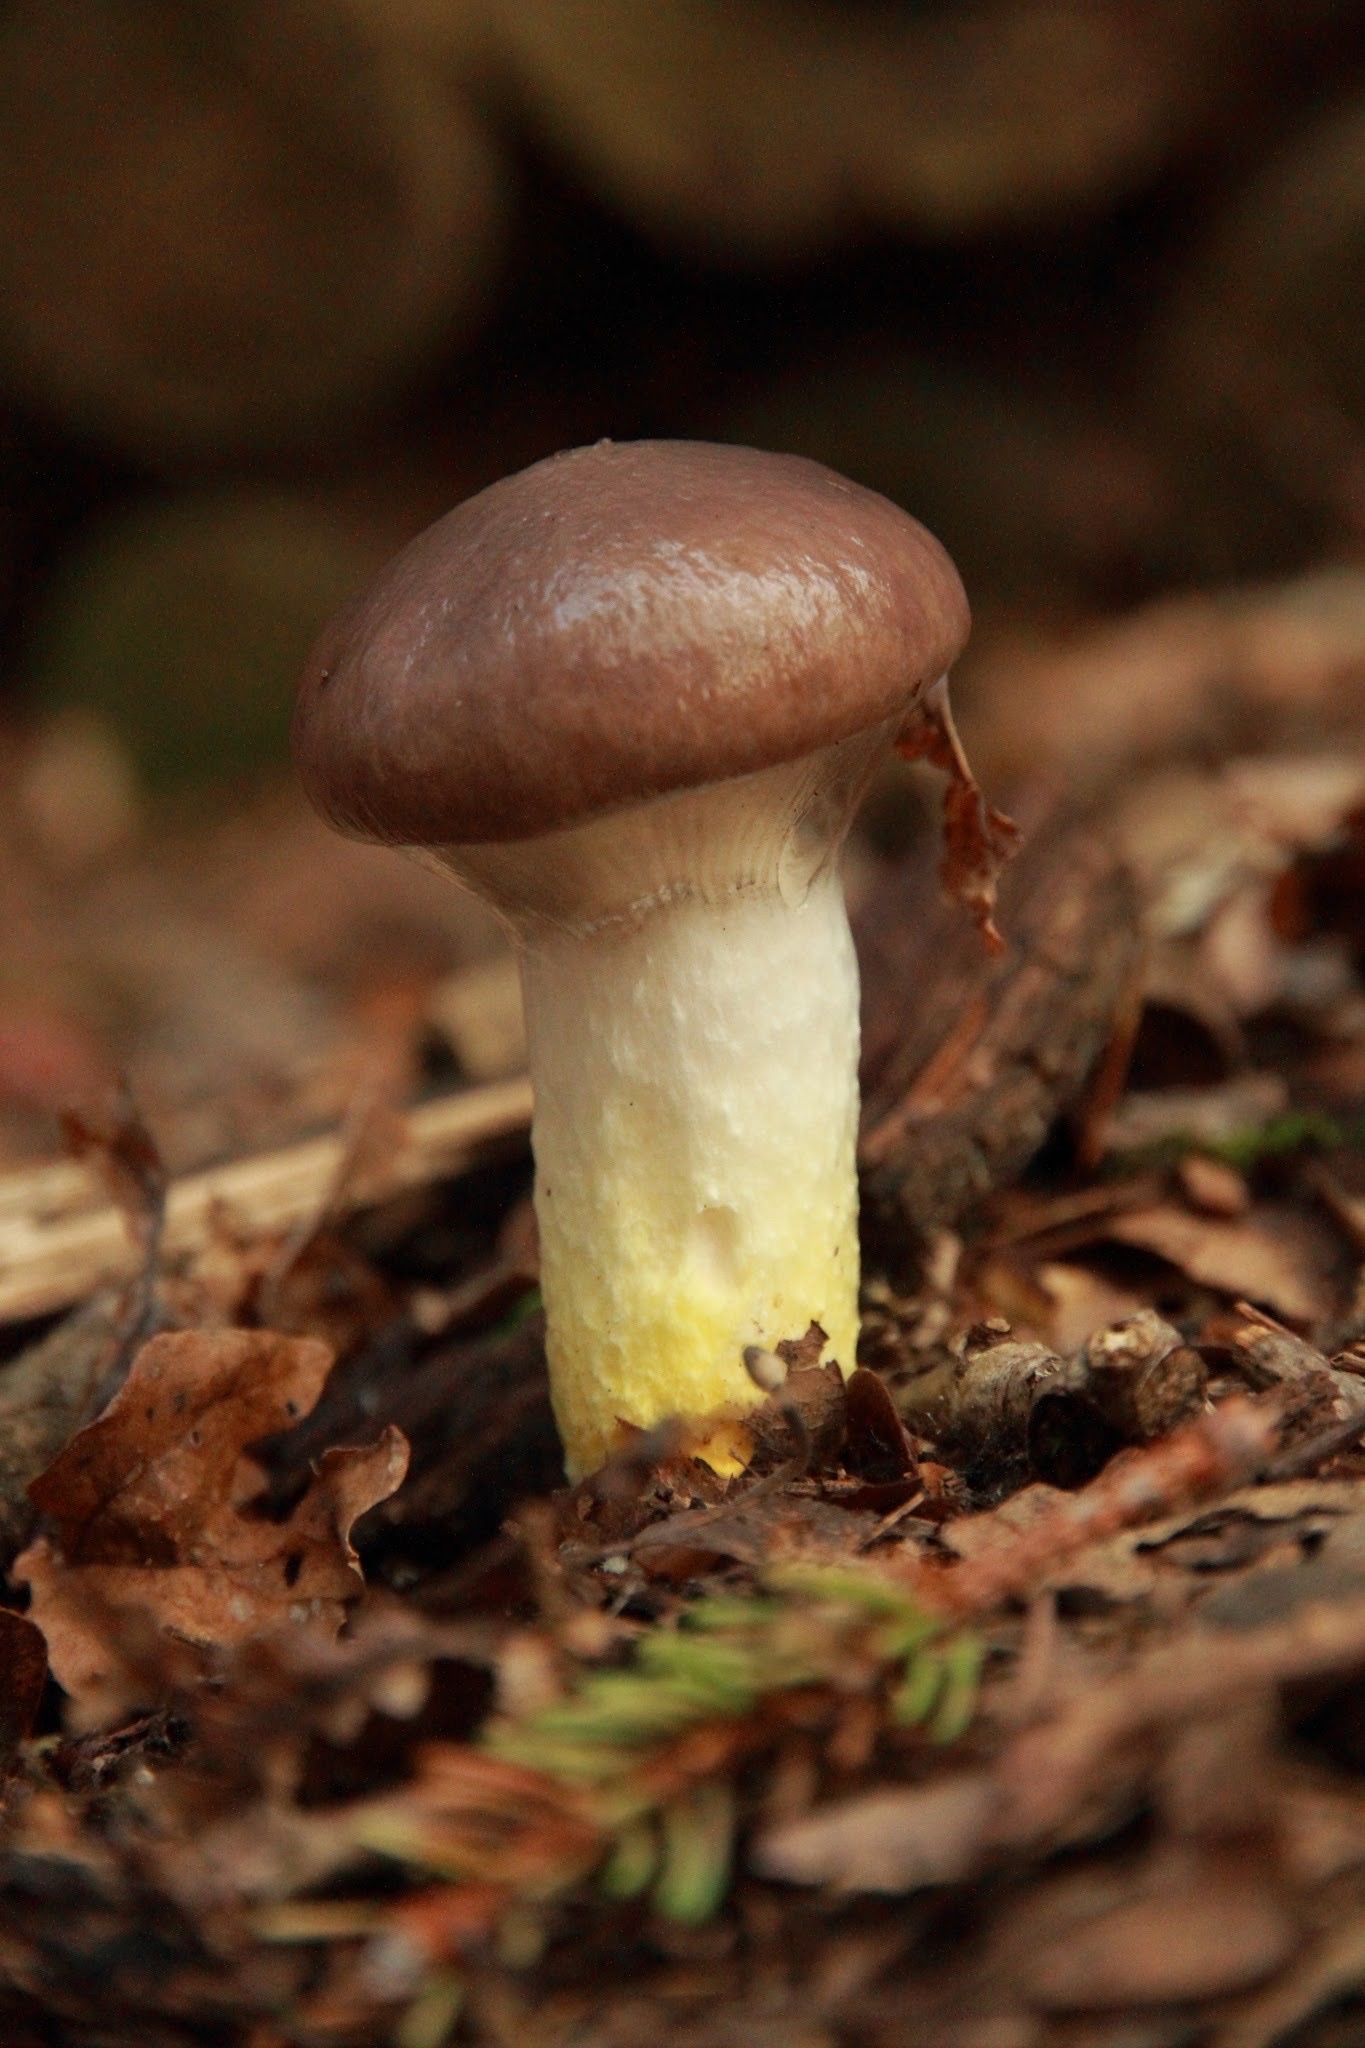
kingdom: Fungi
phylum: Basidiomycota
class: Agaricomycetes
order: Boletales
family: Gomphidiaceae
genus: Gomphidius
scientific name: Gomphidius glutinosus
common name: Slimy spike
